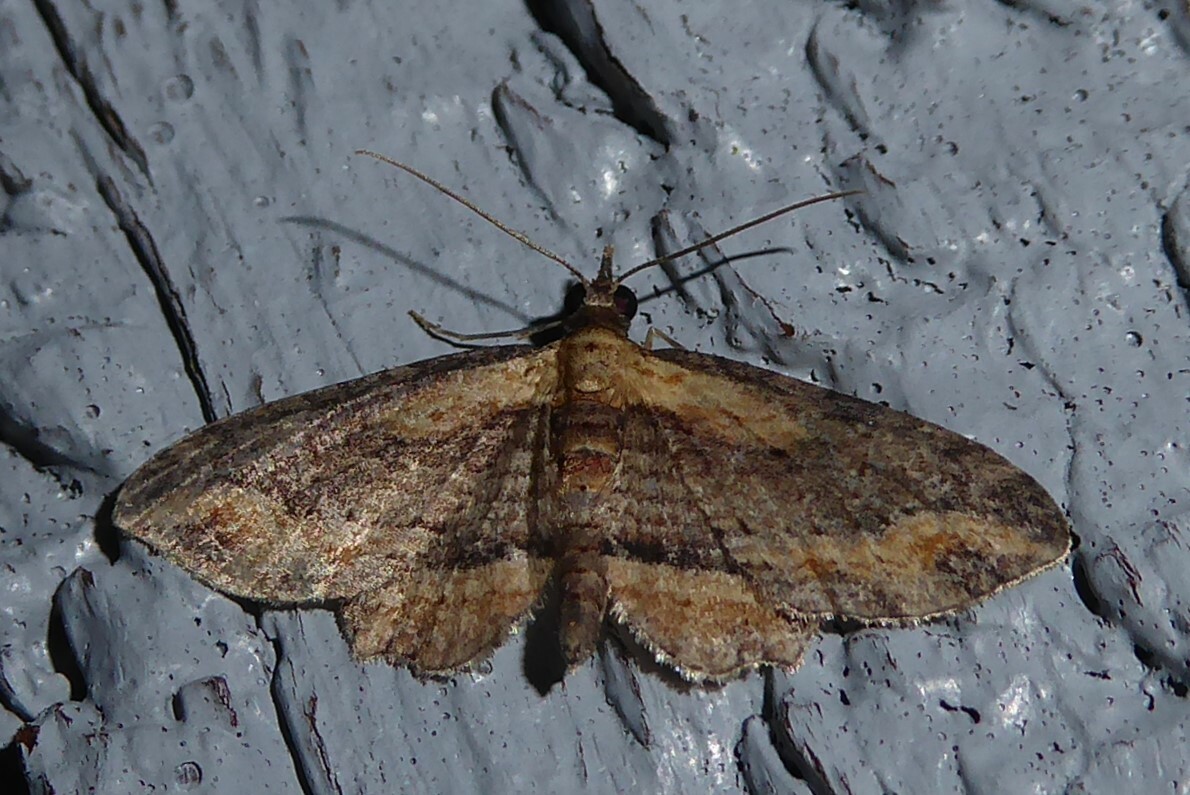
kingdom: Animalia
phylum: Arthropoda
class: Insecta
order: Lepidoptera
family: Geometridae
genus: Chloroclystis
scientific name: Chloroclystis filata
